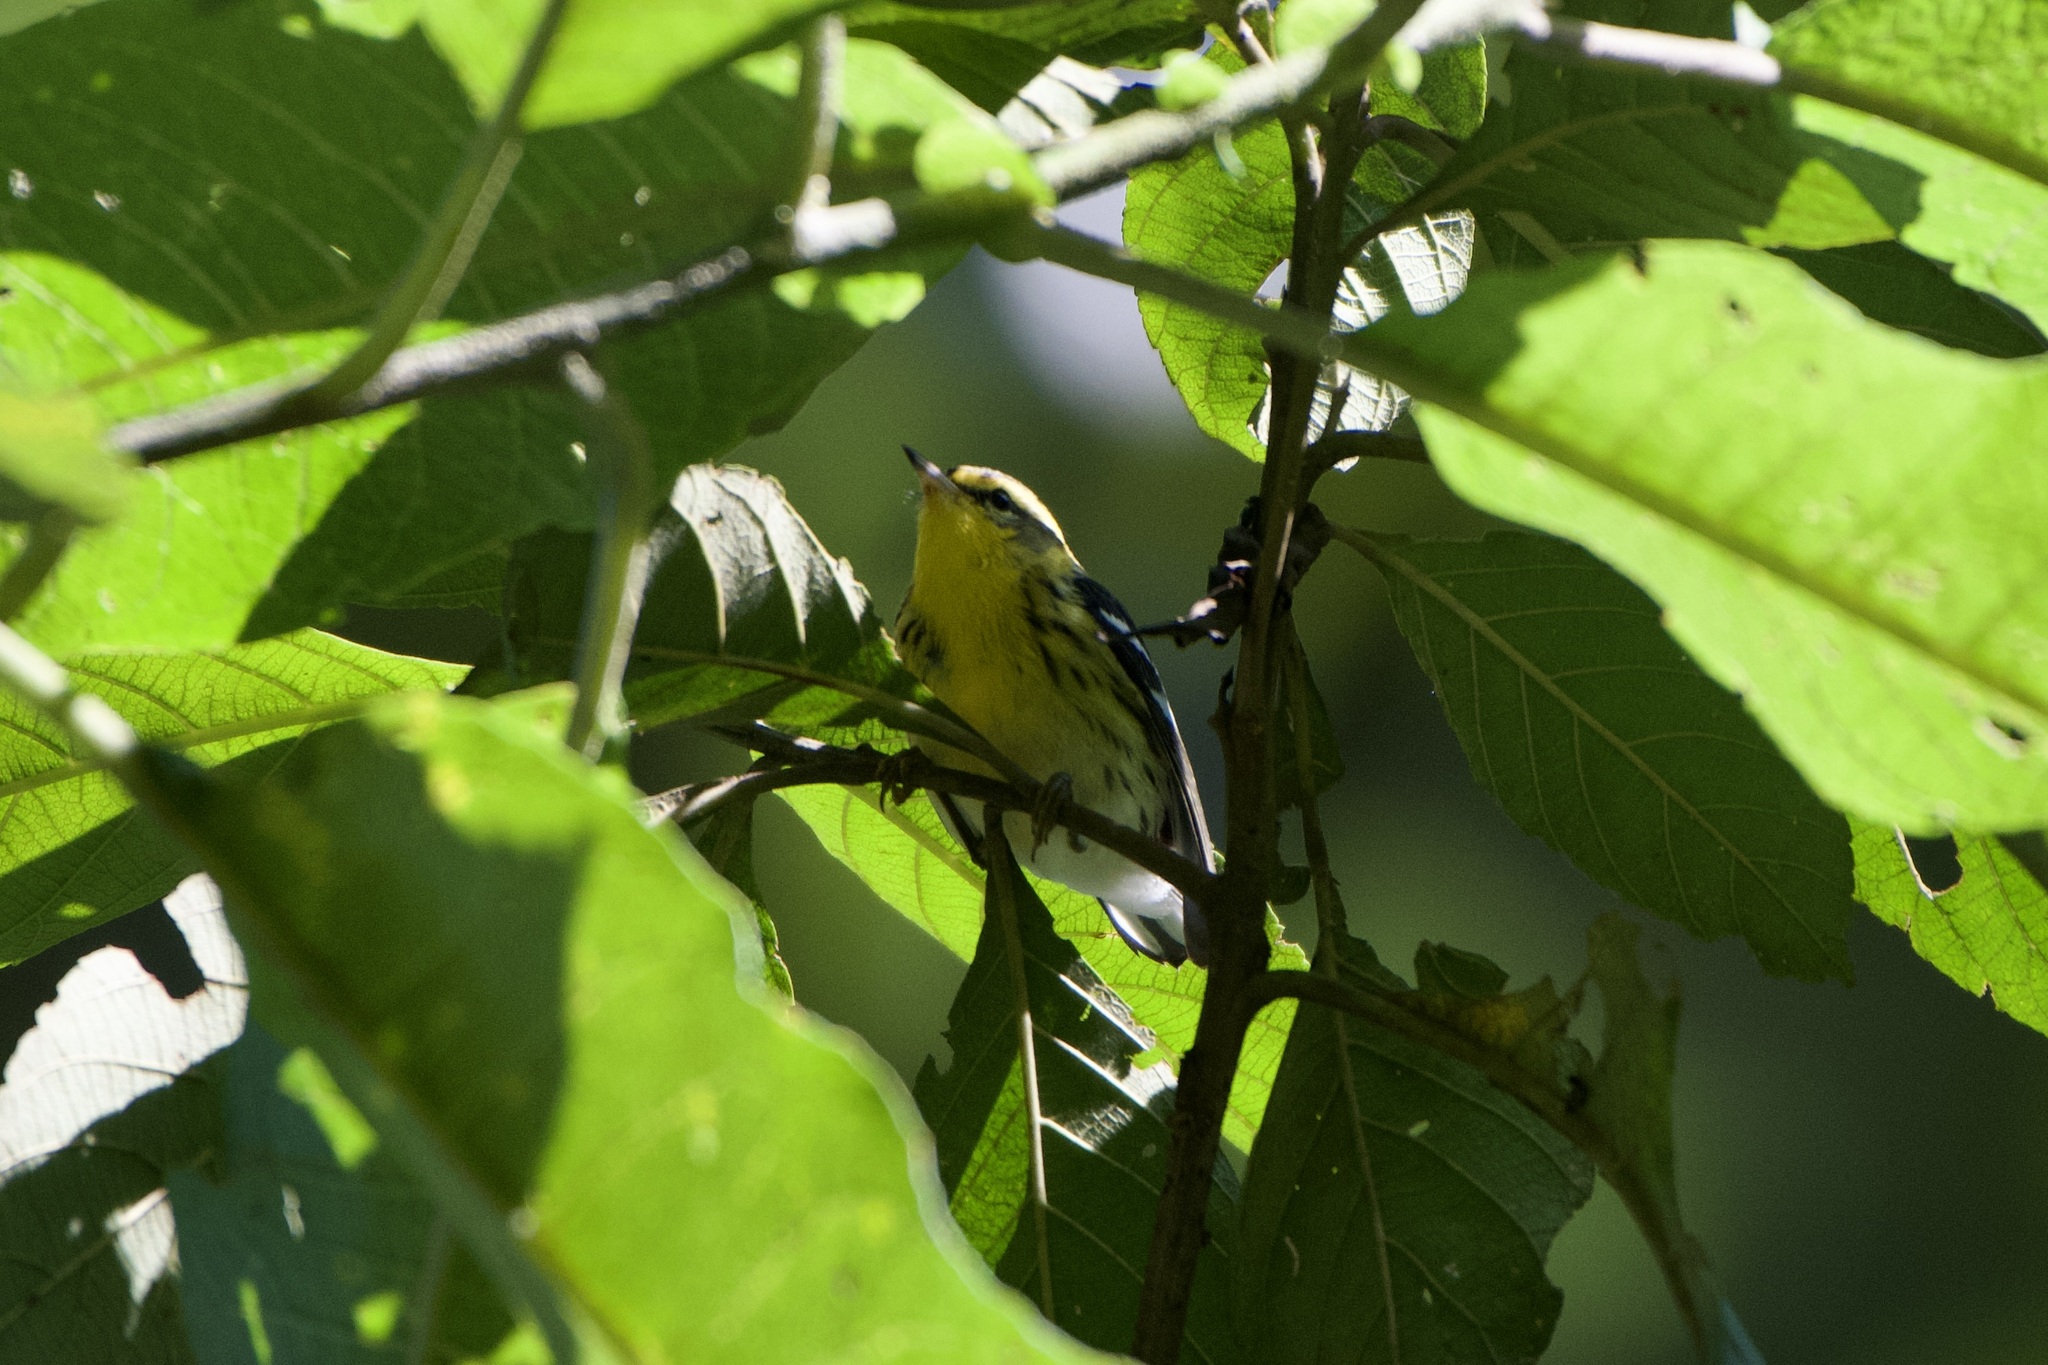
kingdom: Animalia
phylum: Chordata
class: Aves
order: Passeriformes
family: Parulidae
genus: Setophaga
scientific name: Setophaga fusca
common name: Blackburnian warbler
